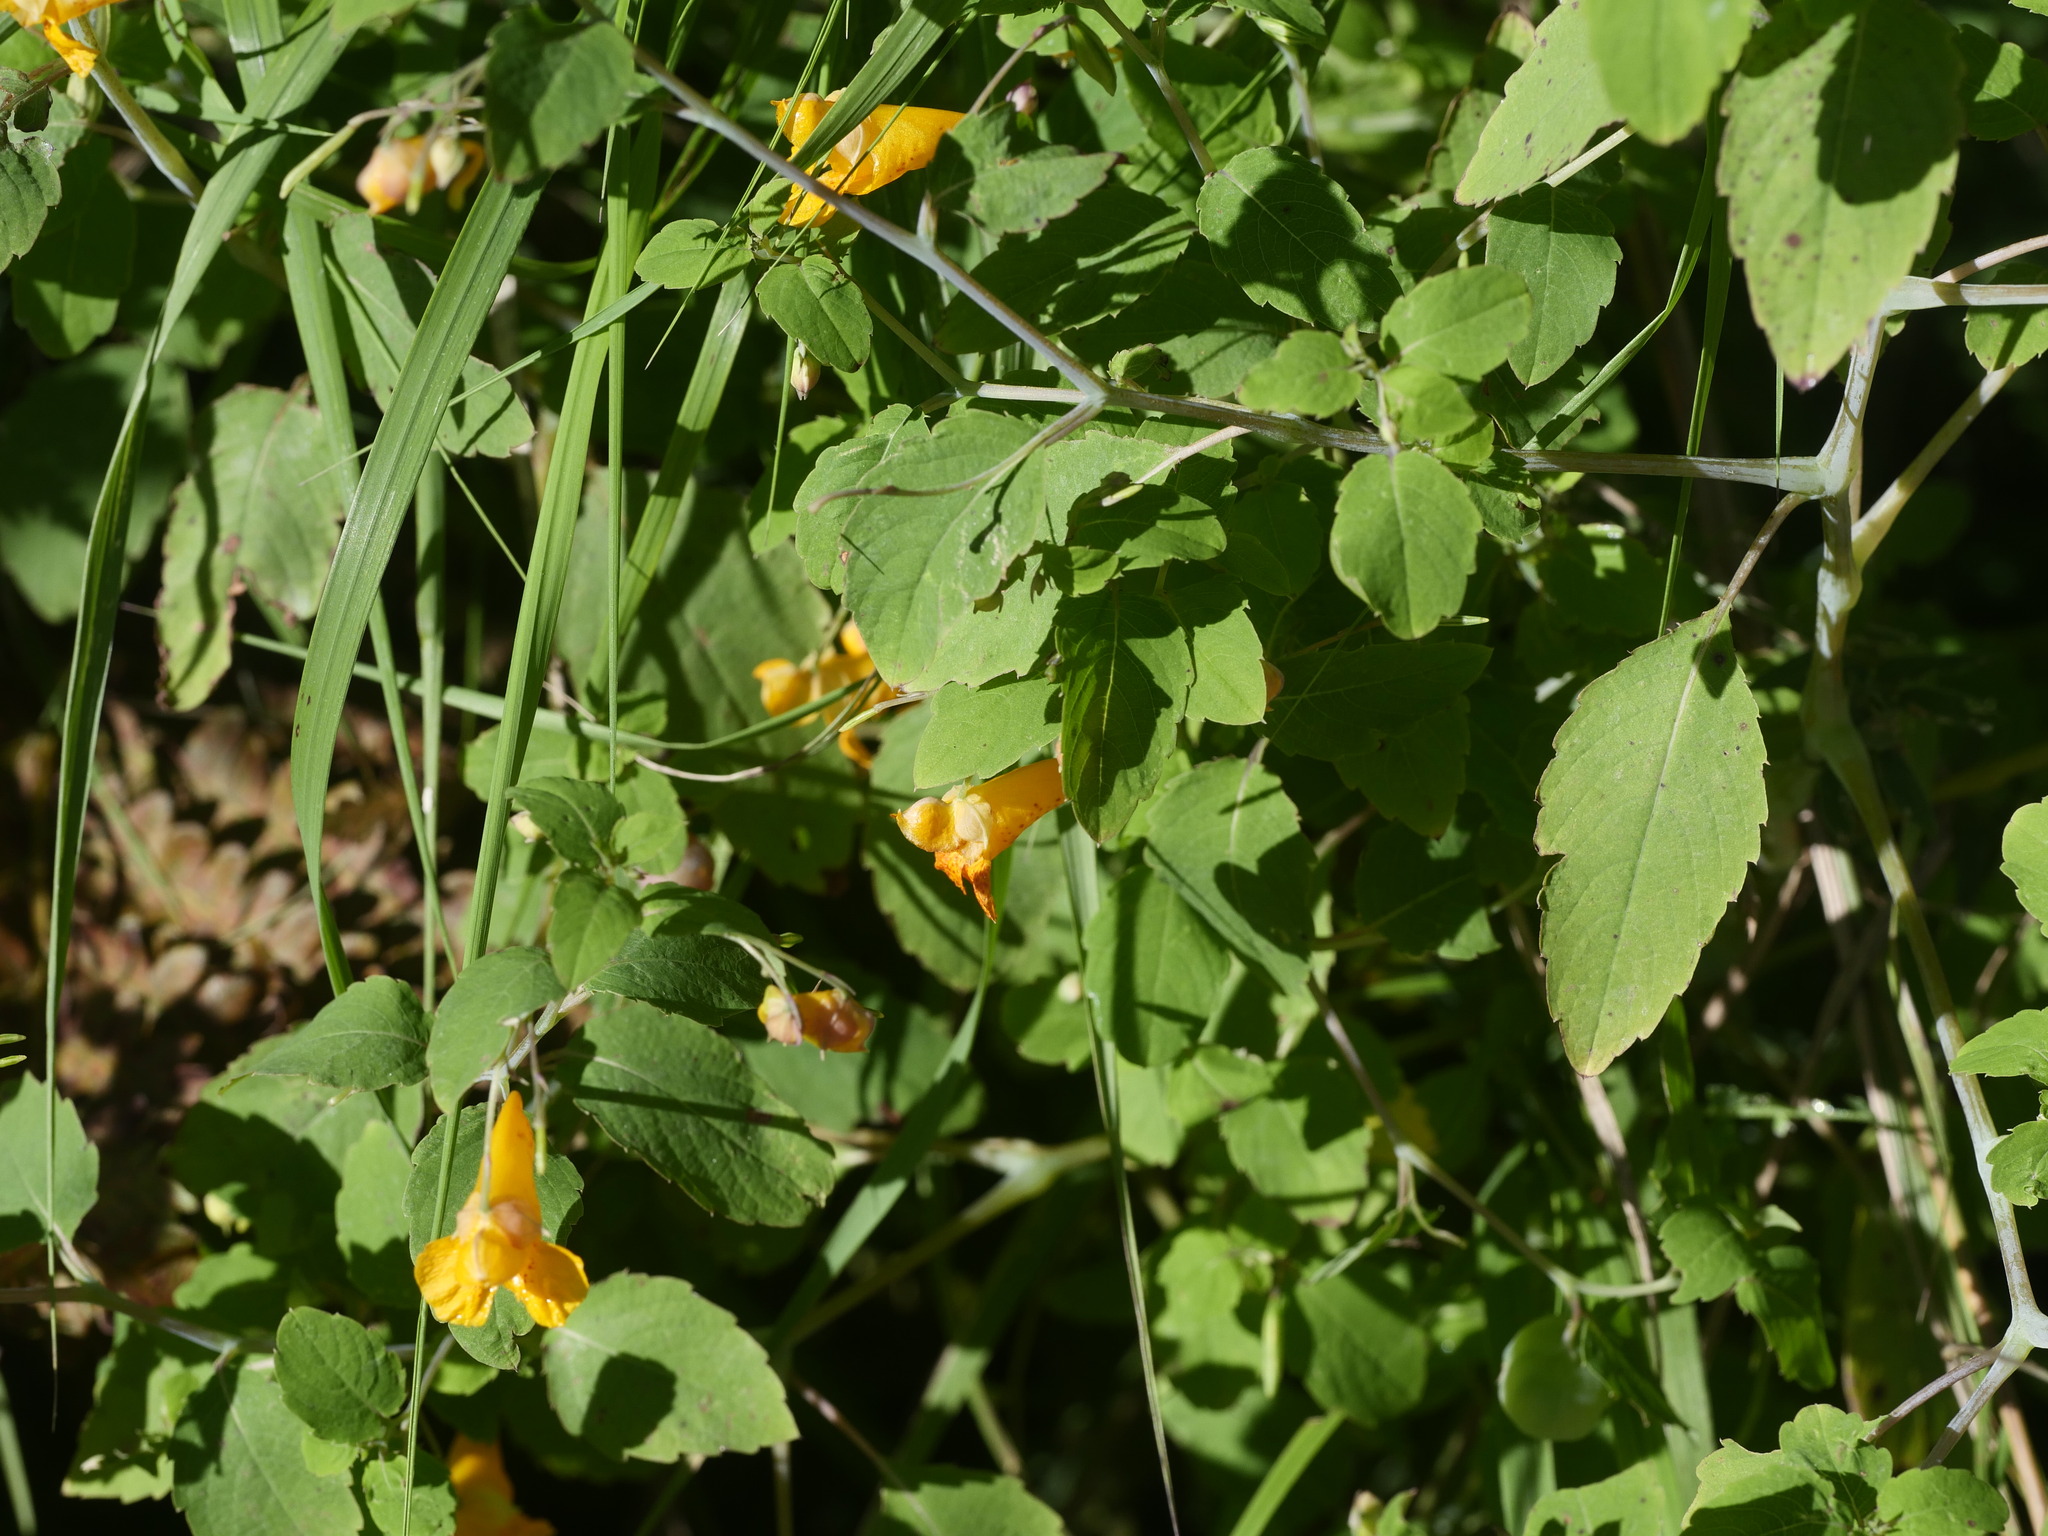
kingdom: Plantae
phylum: Tracheophyta
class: Magnoliopsida
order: Ericales
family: Balsaminaceae
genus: Impatiens
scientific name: Impatiens capensis
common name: Orange balsam
